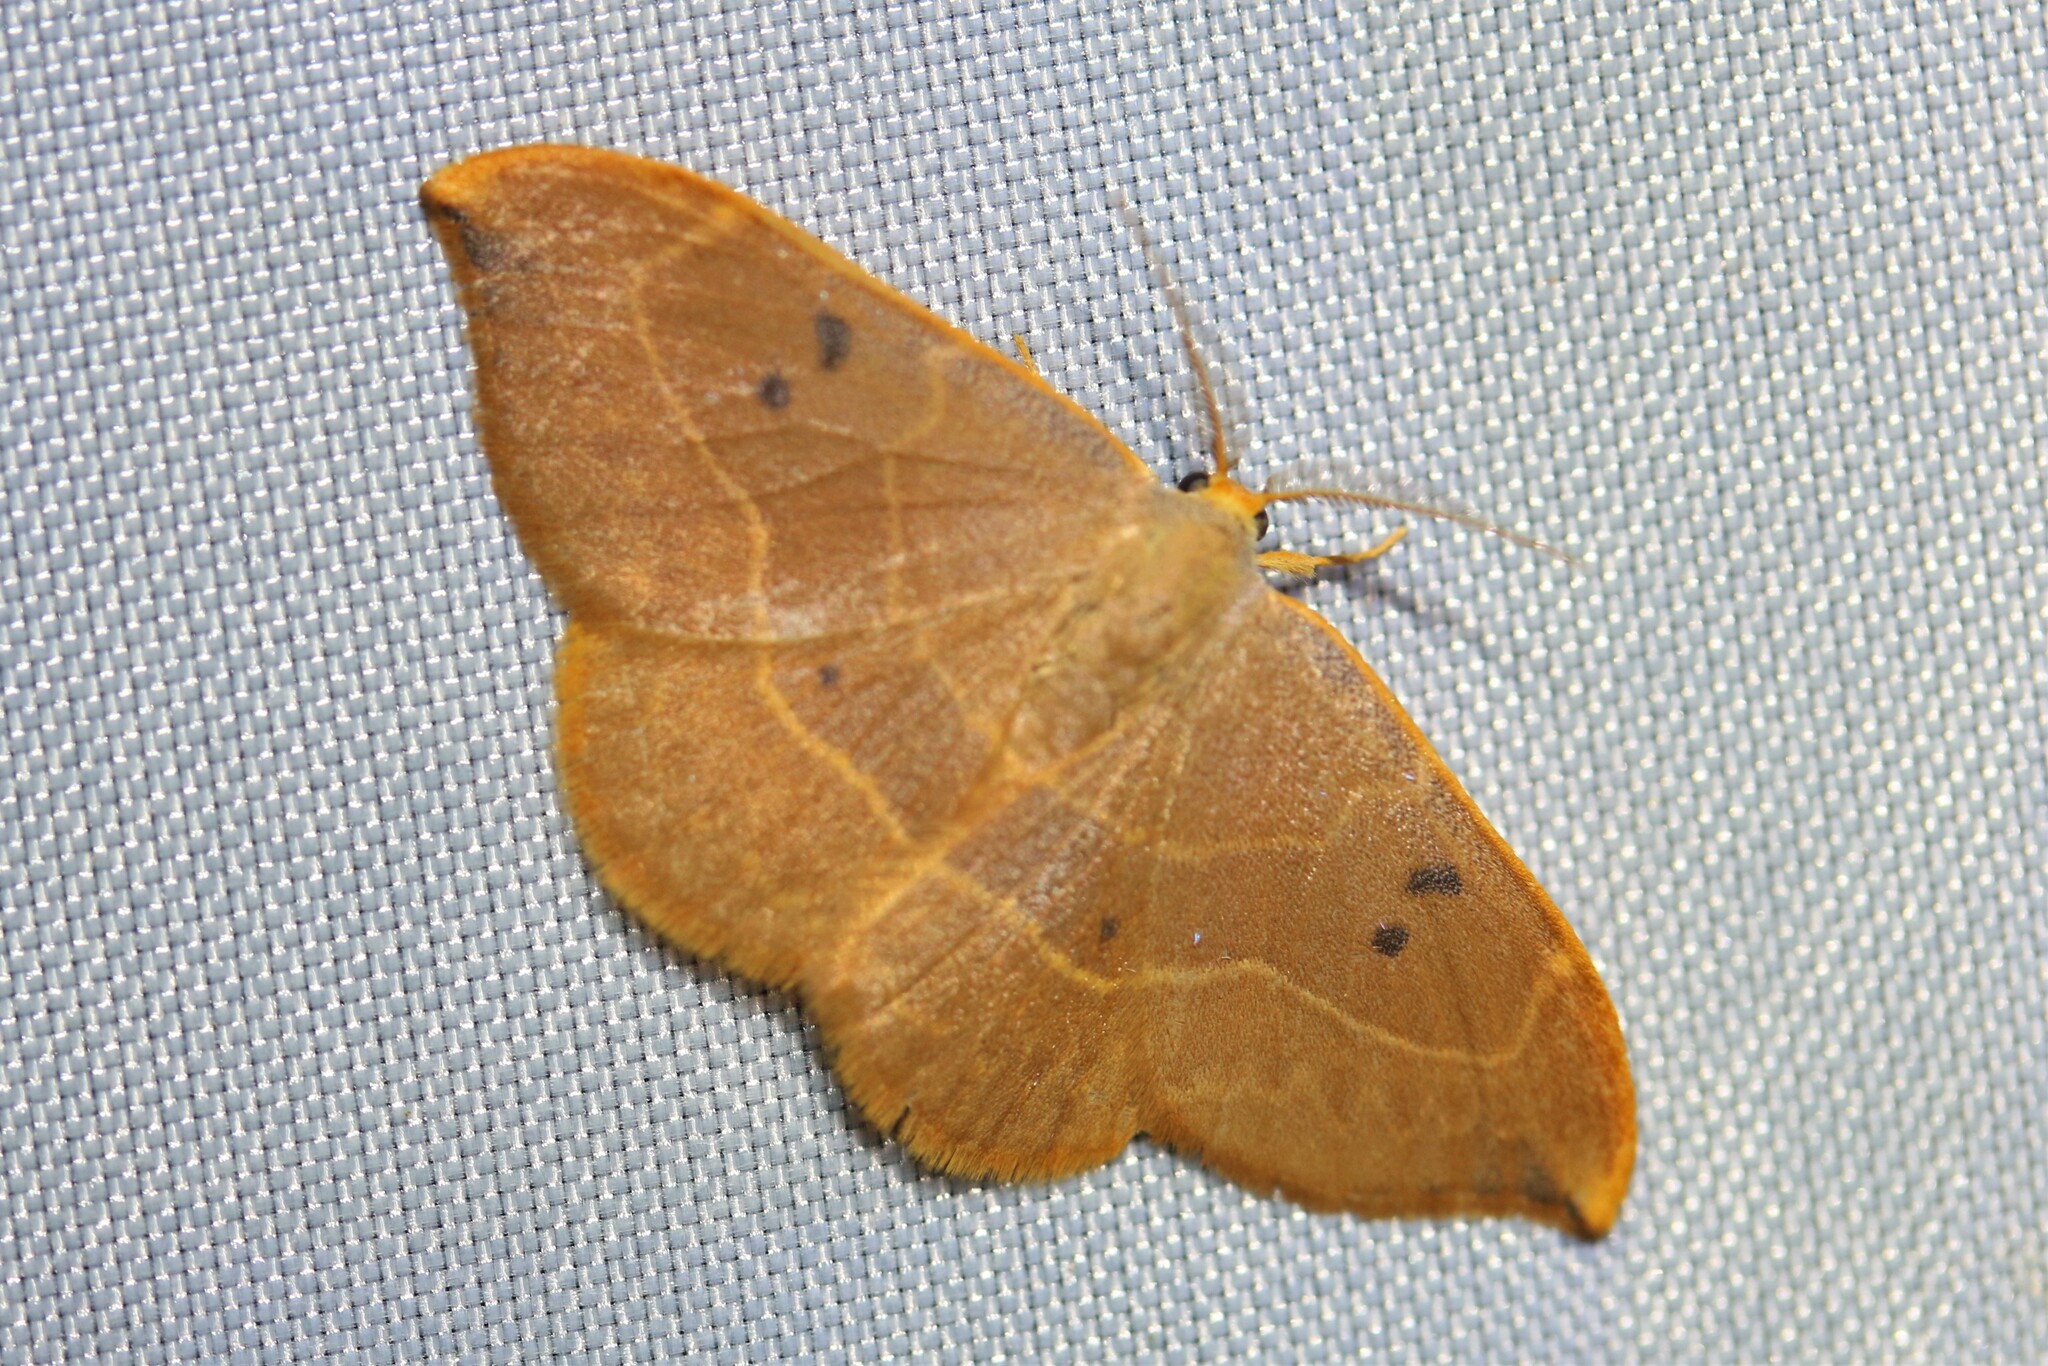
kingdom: Animalia
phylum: Arthropoda
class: Insecta
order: Lepidoptera
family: Drepanidae
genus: Watsonalla
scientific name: Watsonalla binaria
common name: Oak hook-tip
